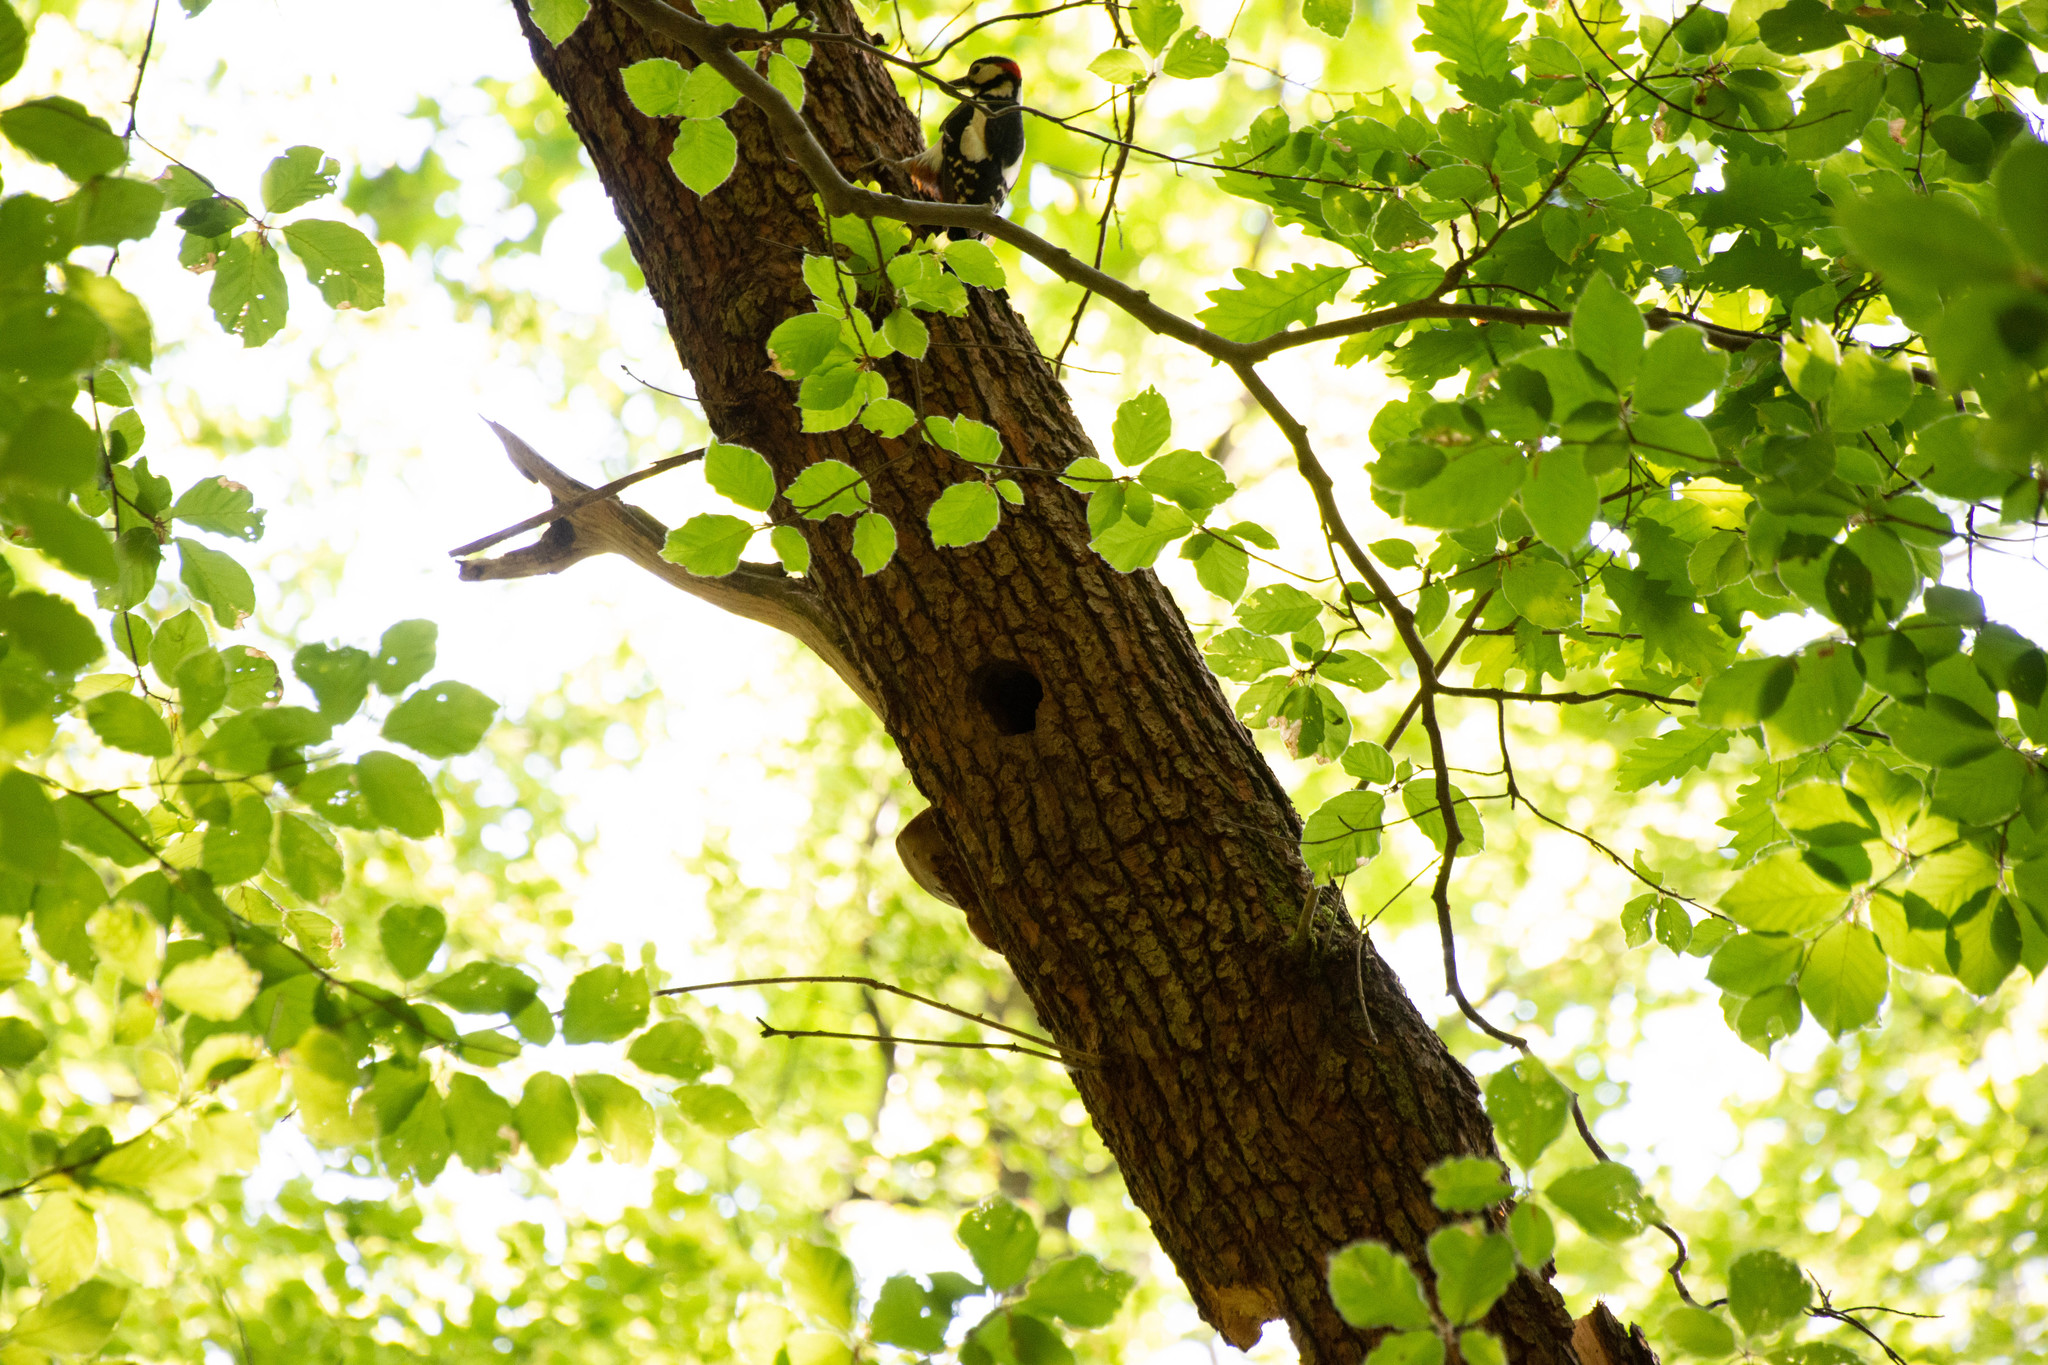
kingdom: Animalia
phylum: Chordata
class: Aves
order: Piciformes
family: Picidae
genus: Dendrocopos
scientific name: Dendrocopos major
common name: Great spotted woodpecker
